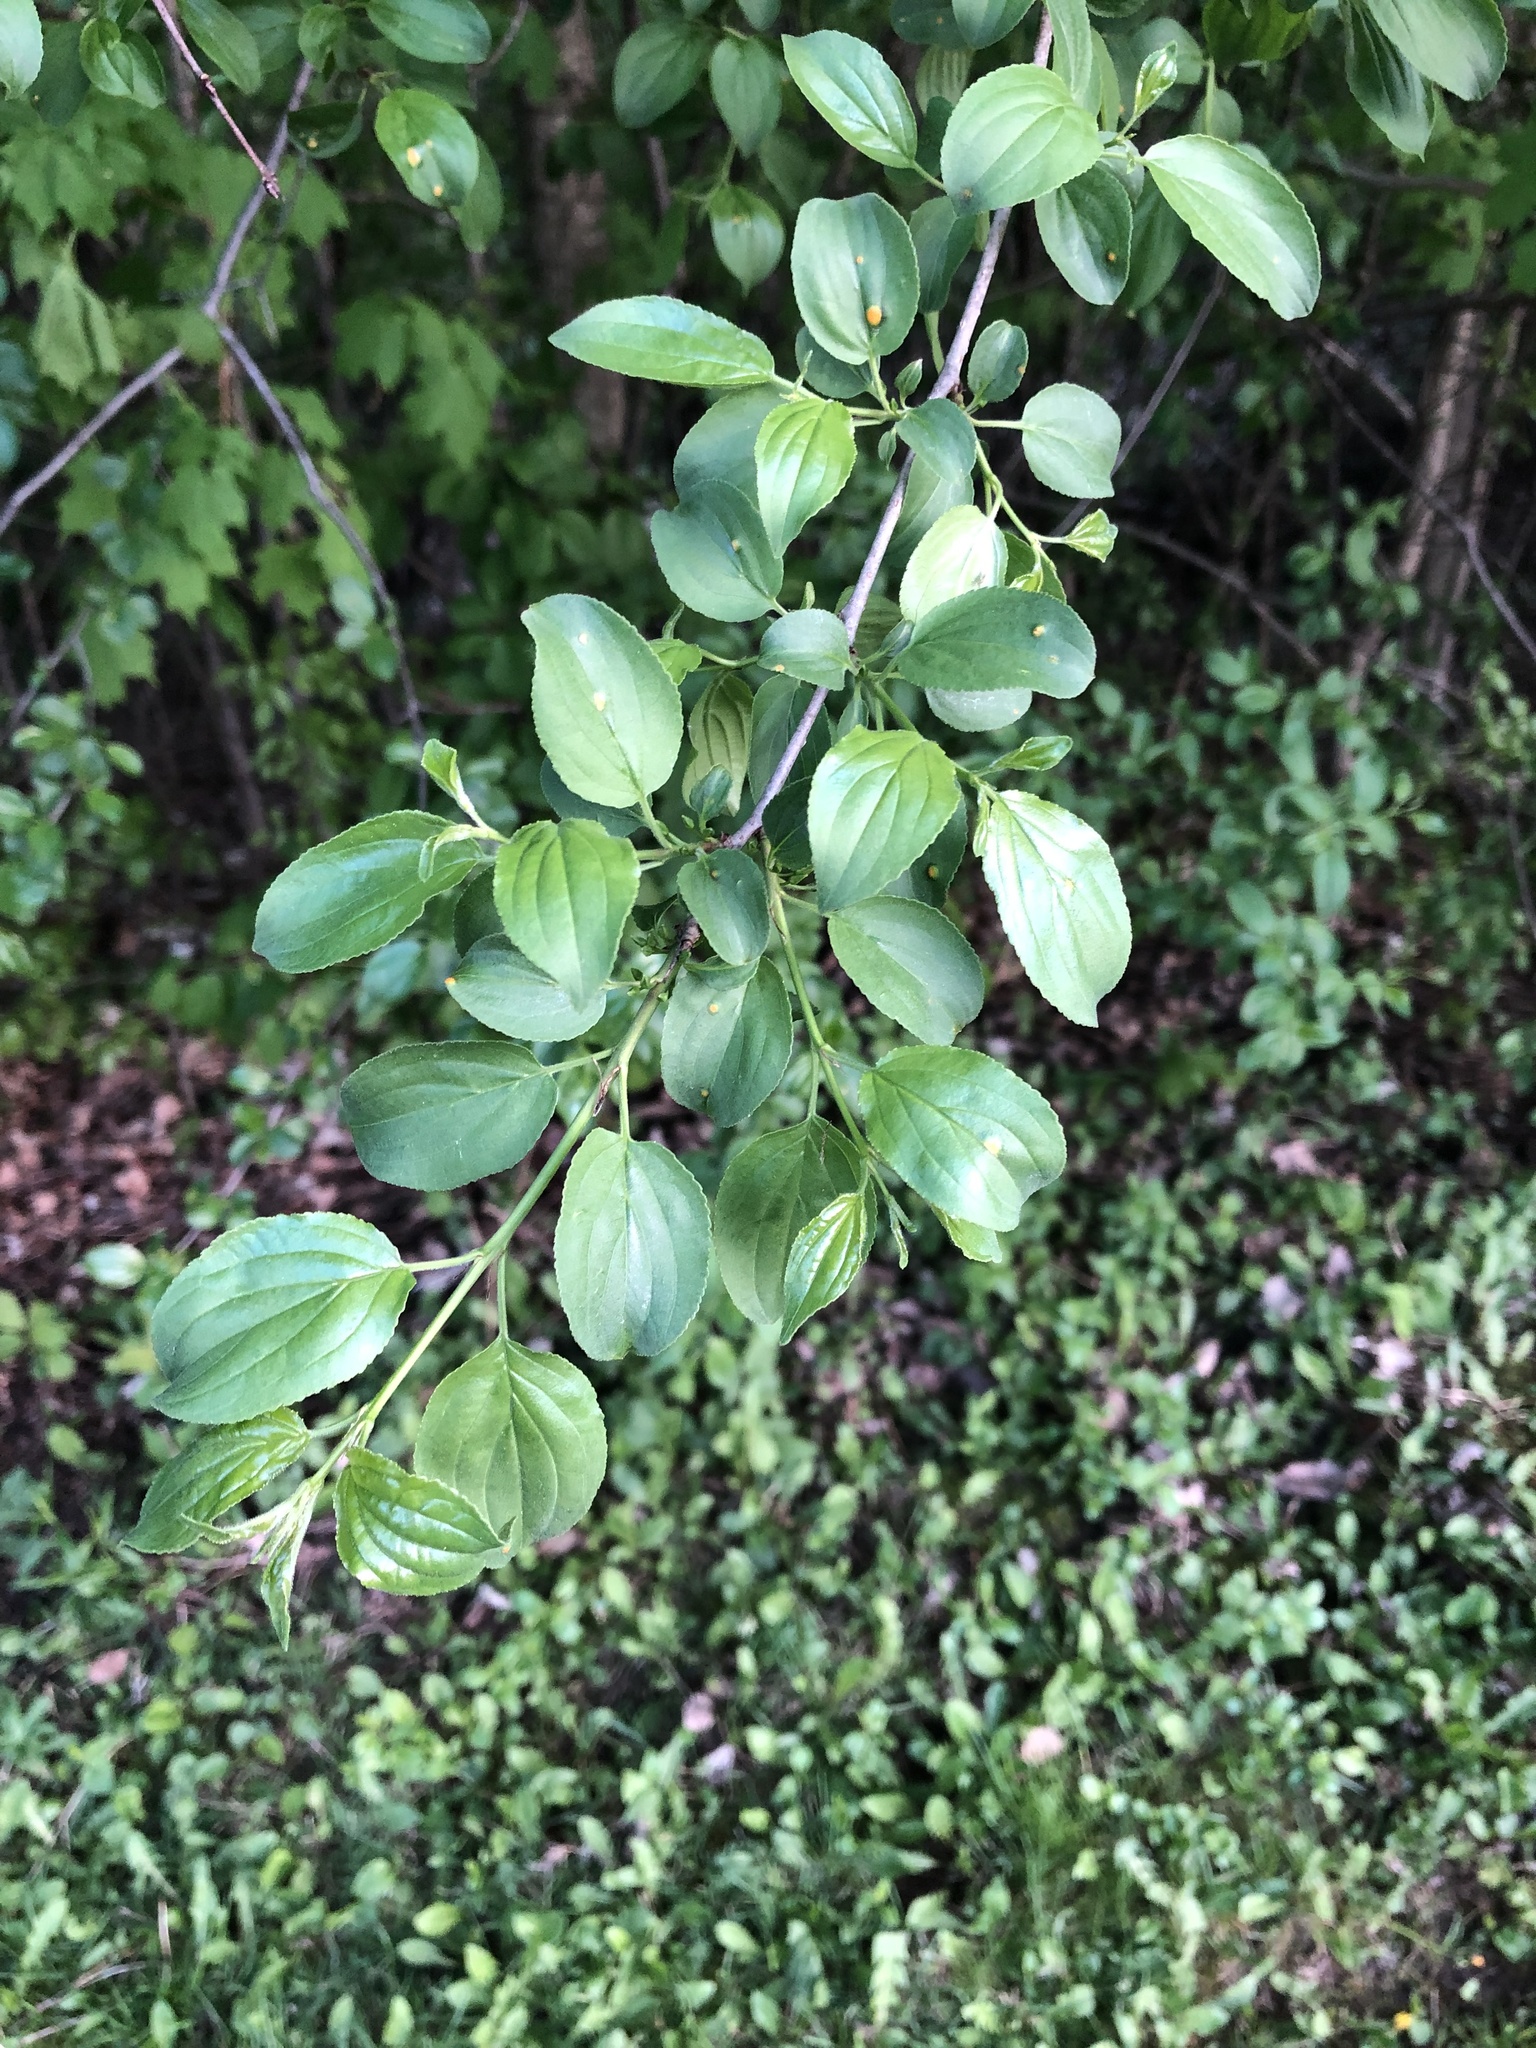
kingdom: Plantae
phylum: Tracheophyta
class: Magnoliopsida
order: Rosales
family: Rhamnaceae
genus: Rhamnus
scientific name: Rhamnus cathartica
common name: Common buckthorn
